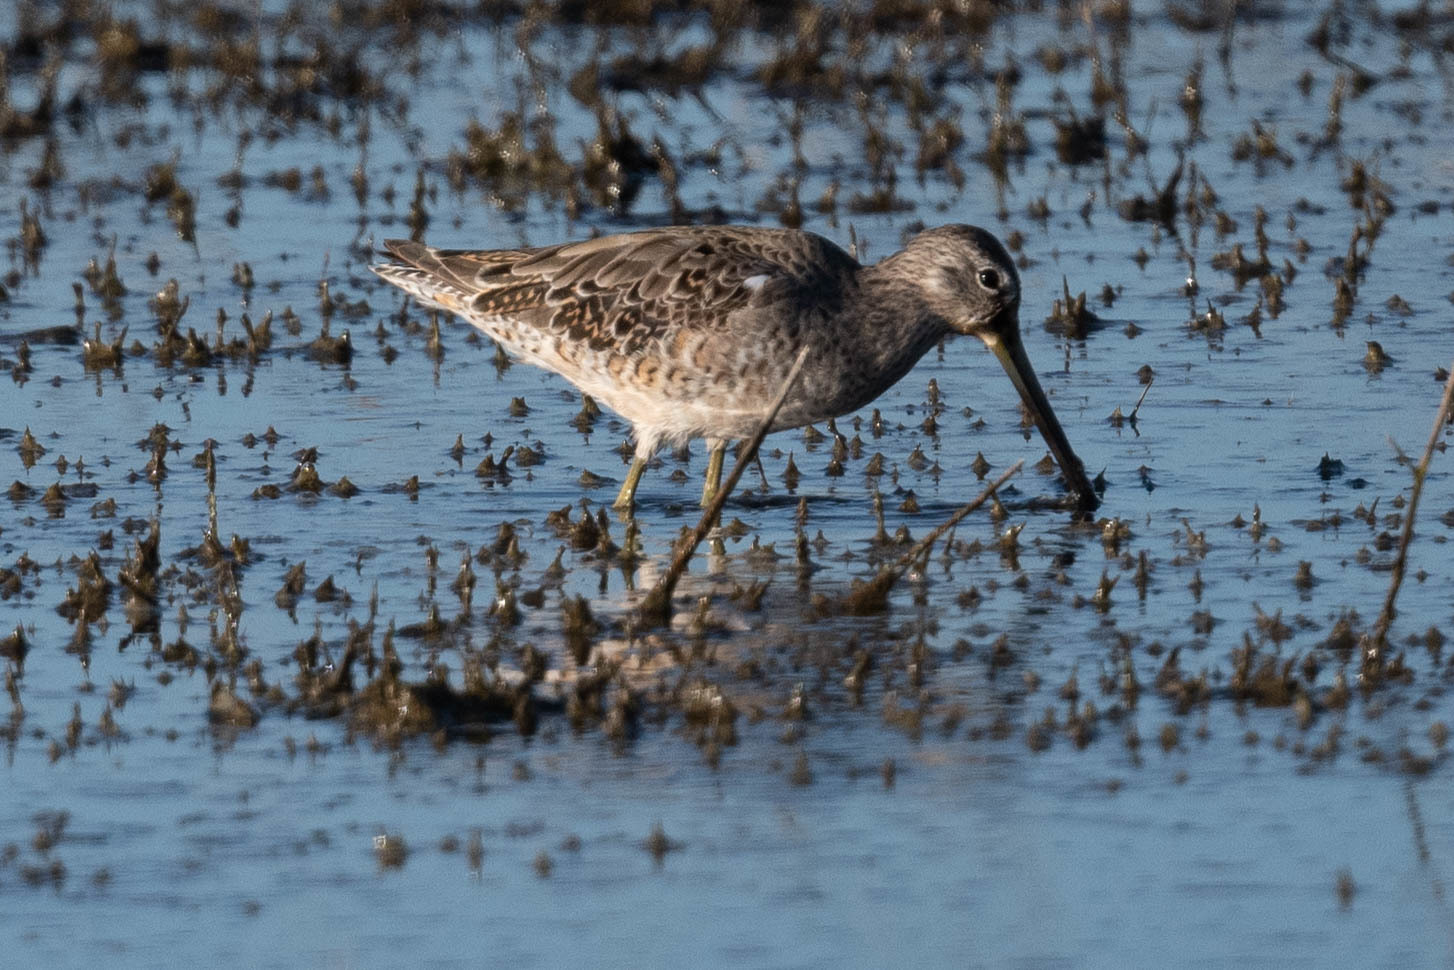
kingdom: Animalia
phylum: Chordata
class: Aves
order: Charadriiformes
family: Scolopacidae
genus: Limnodromus
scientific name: Limnodromus scolopaceus
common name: Long-billed dowitcher
